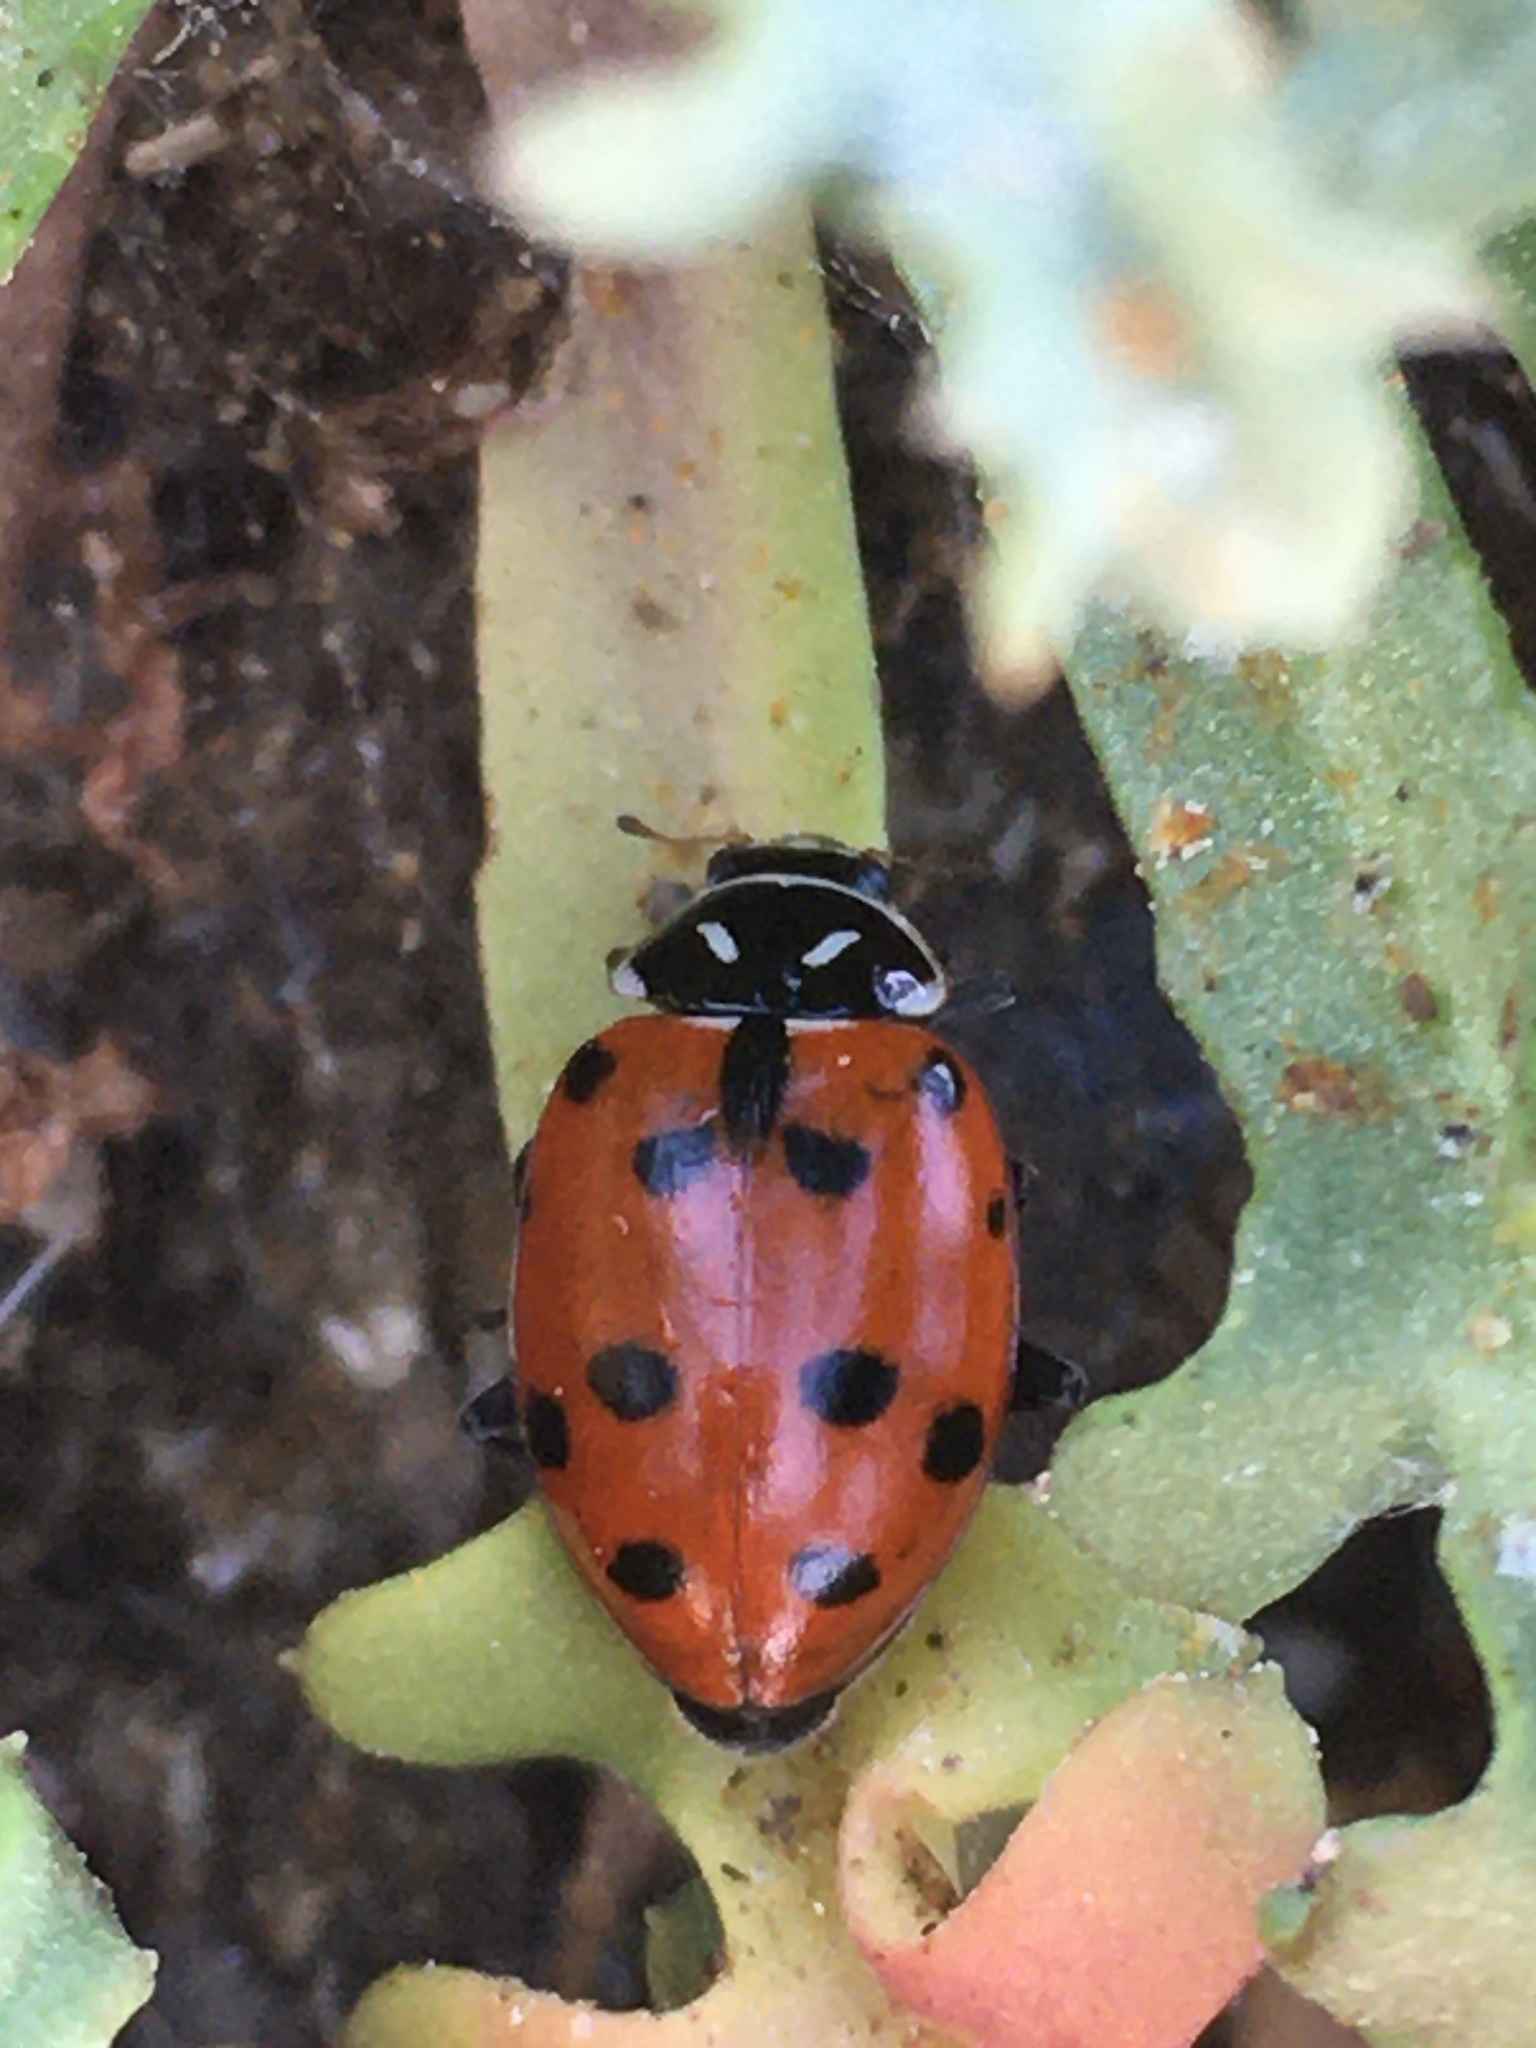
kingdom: Animalia
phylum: Arthropoda
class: Insecta
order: Coleoptera
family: Coccinellidae
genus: Hippodamia
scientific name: Hippodamia convergens
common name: Convergent lady beetle
